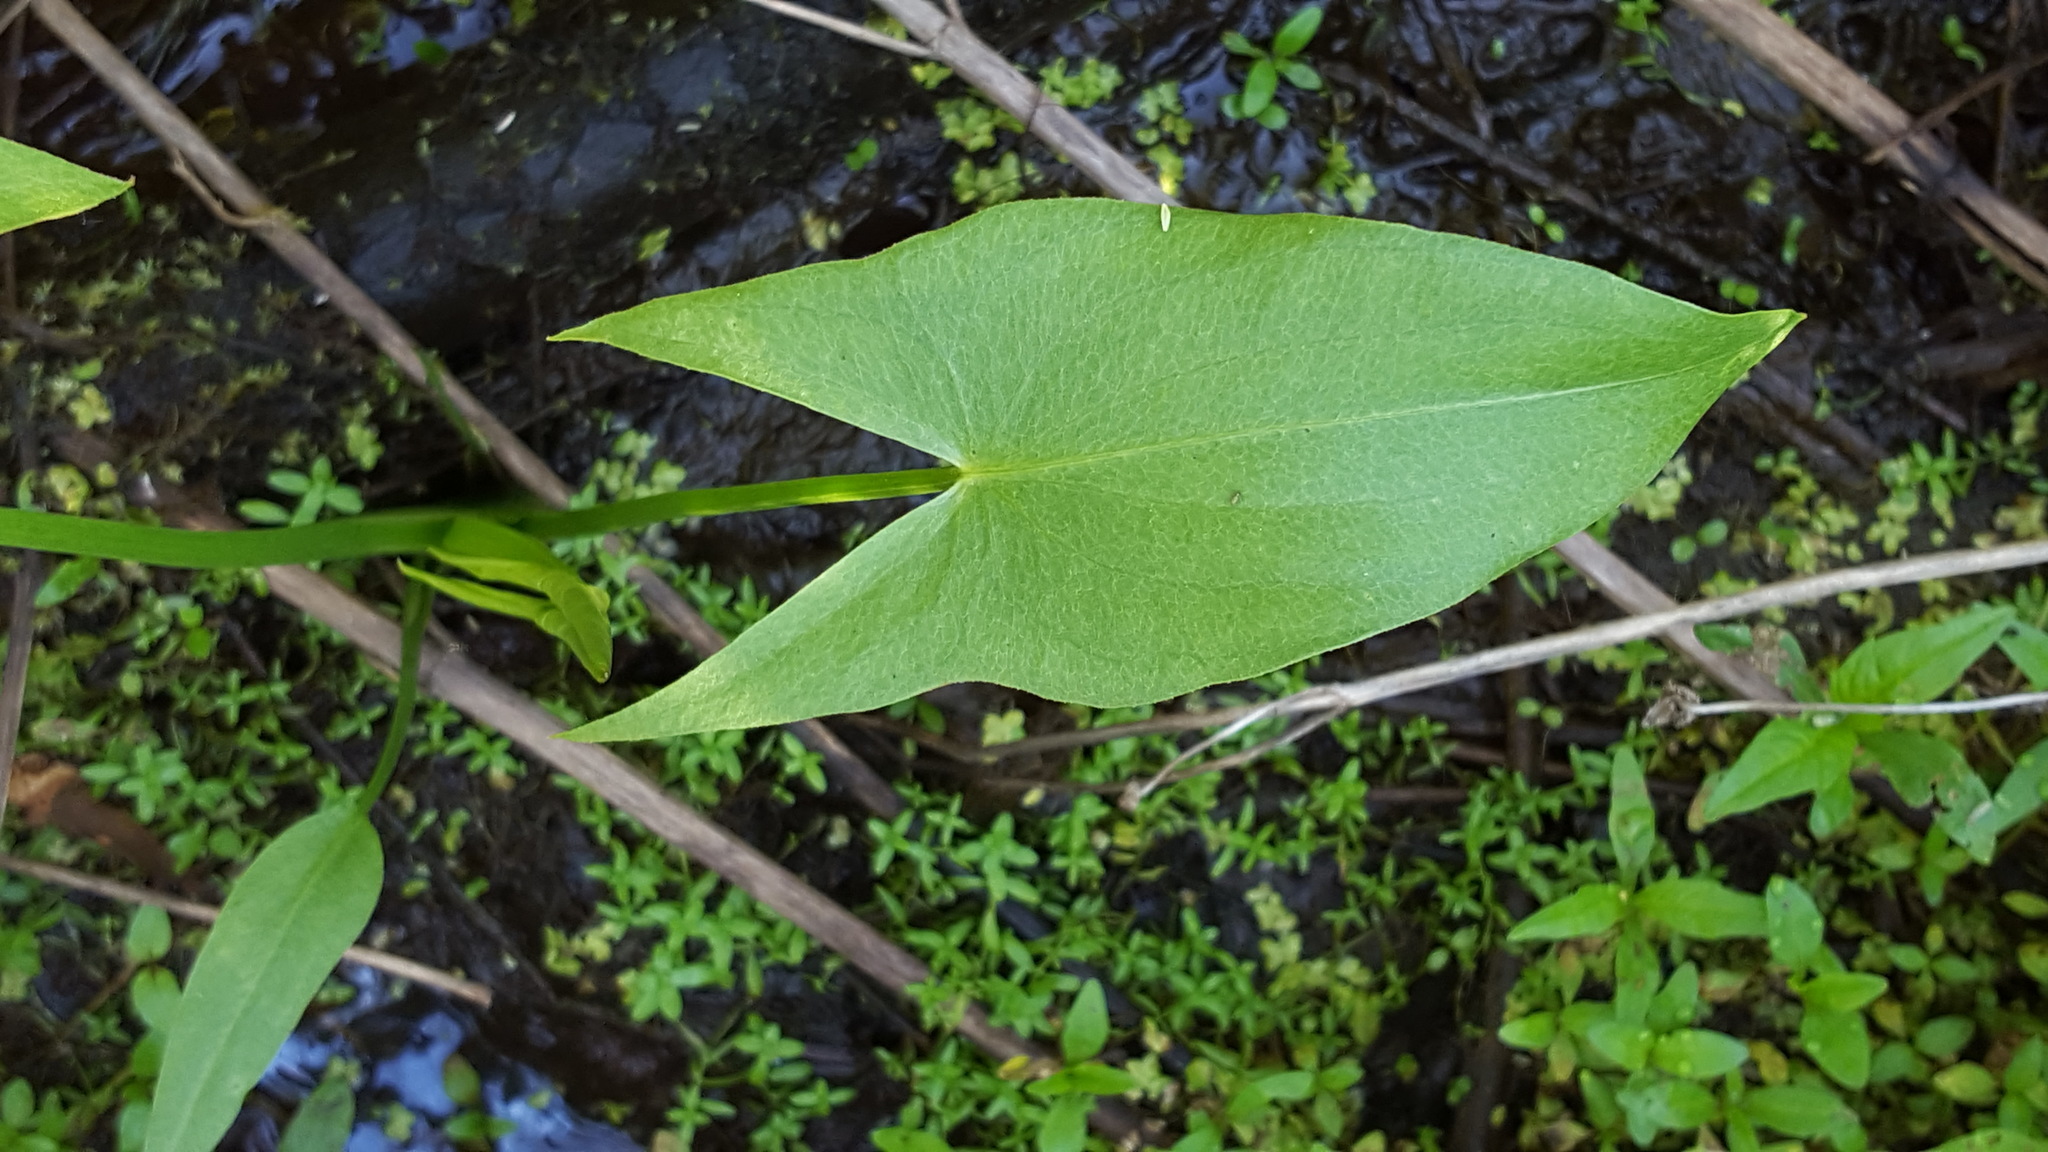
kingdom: Plantae
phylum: Tracheophyta
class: Liliopsida
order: Alismatales
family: Alismataceae
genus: Sagittaria
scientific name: Sagittaria latifolia
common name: Duck-potato
